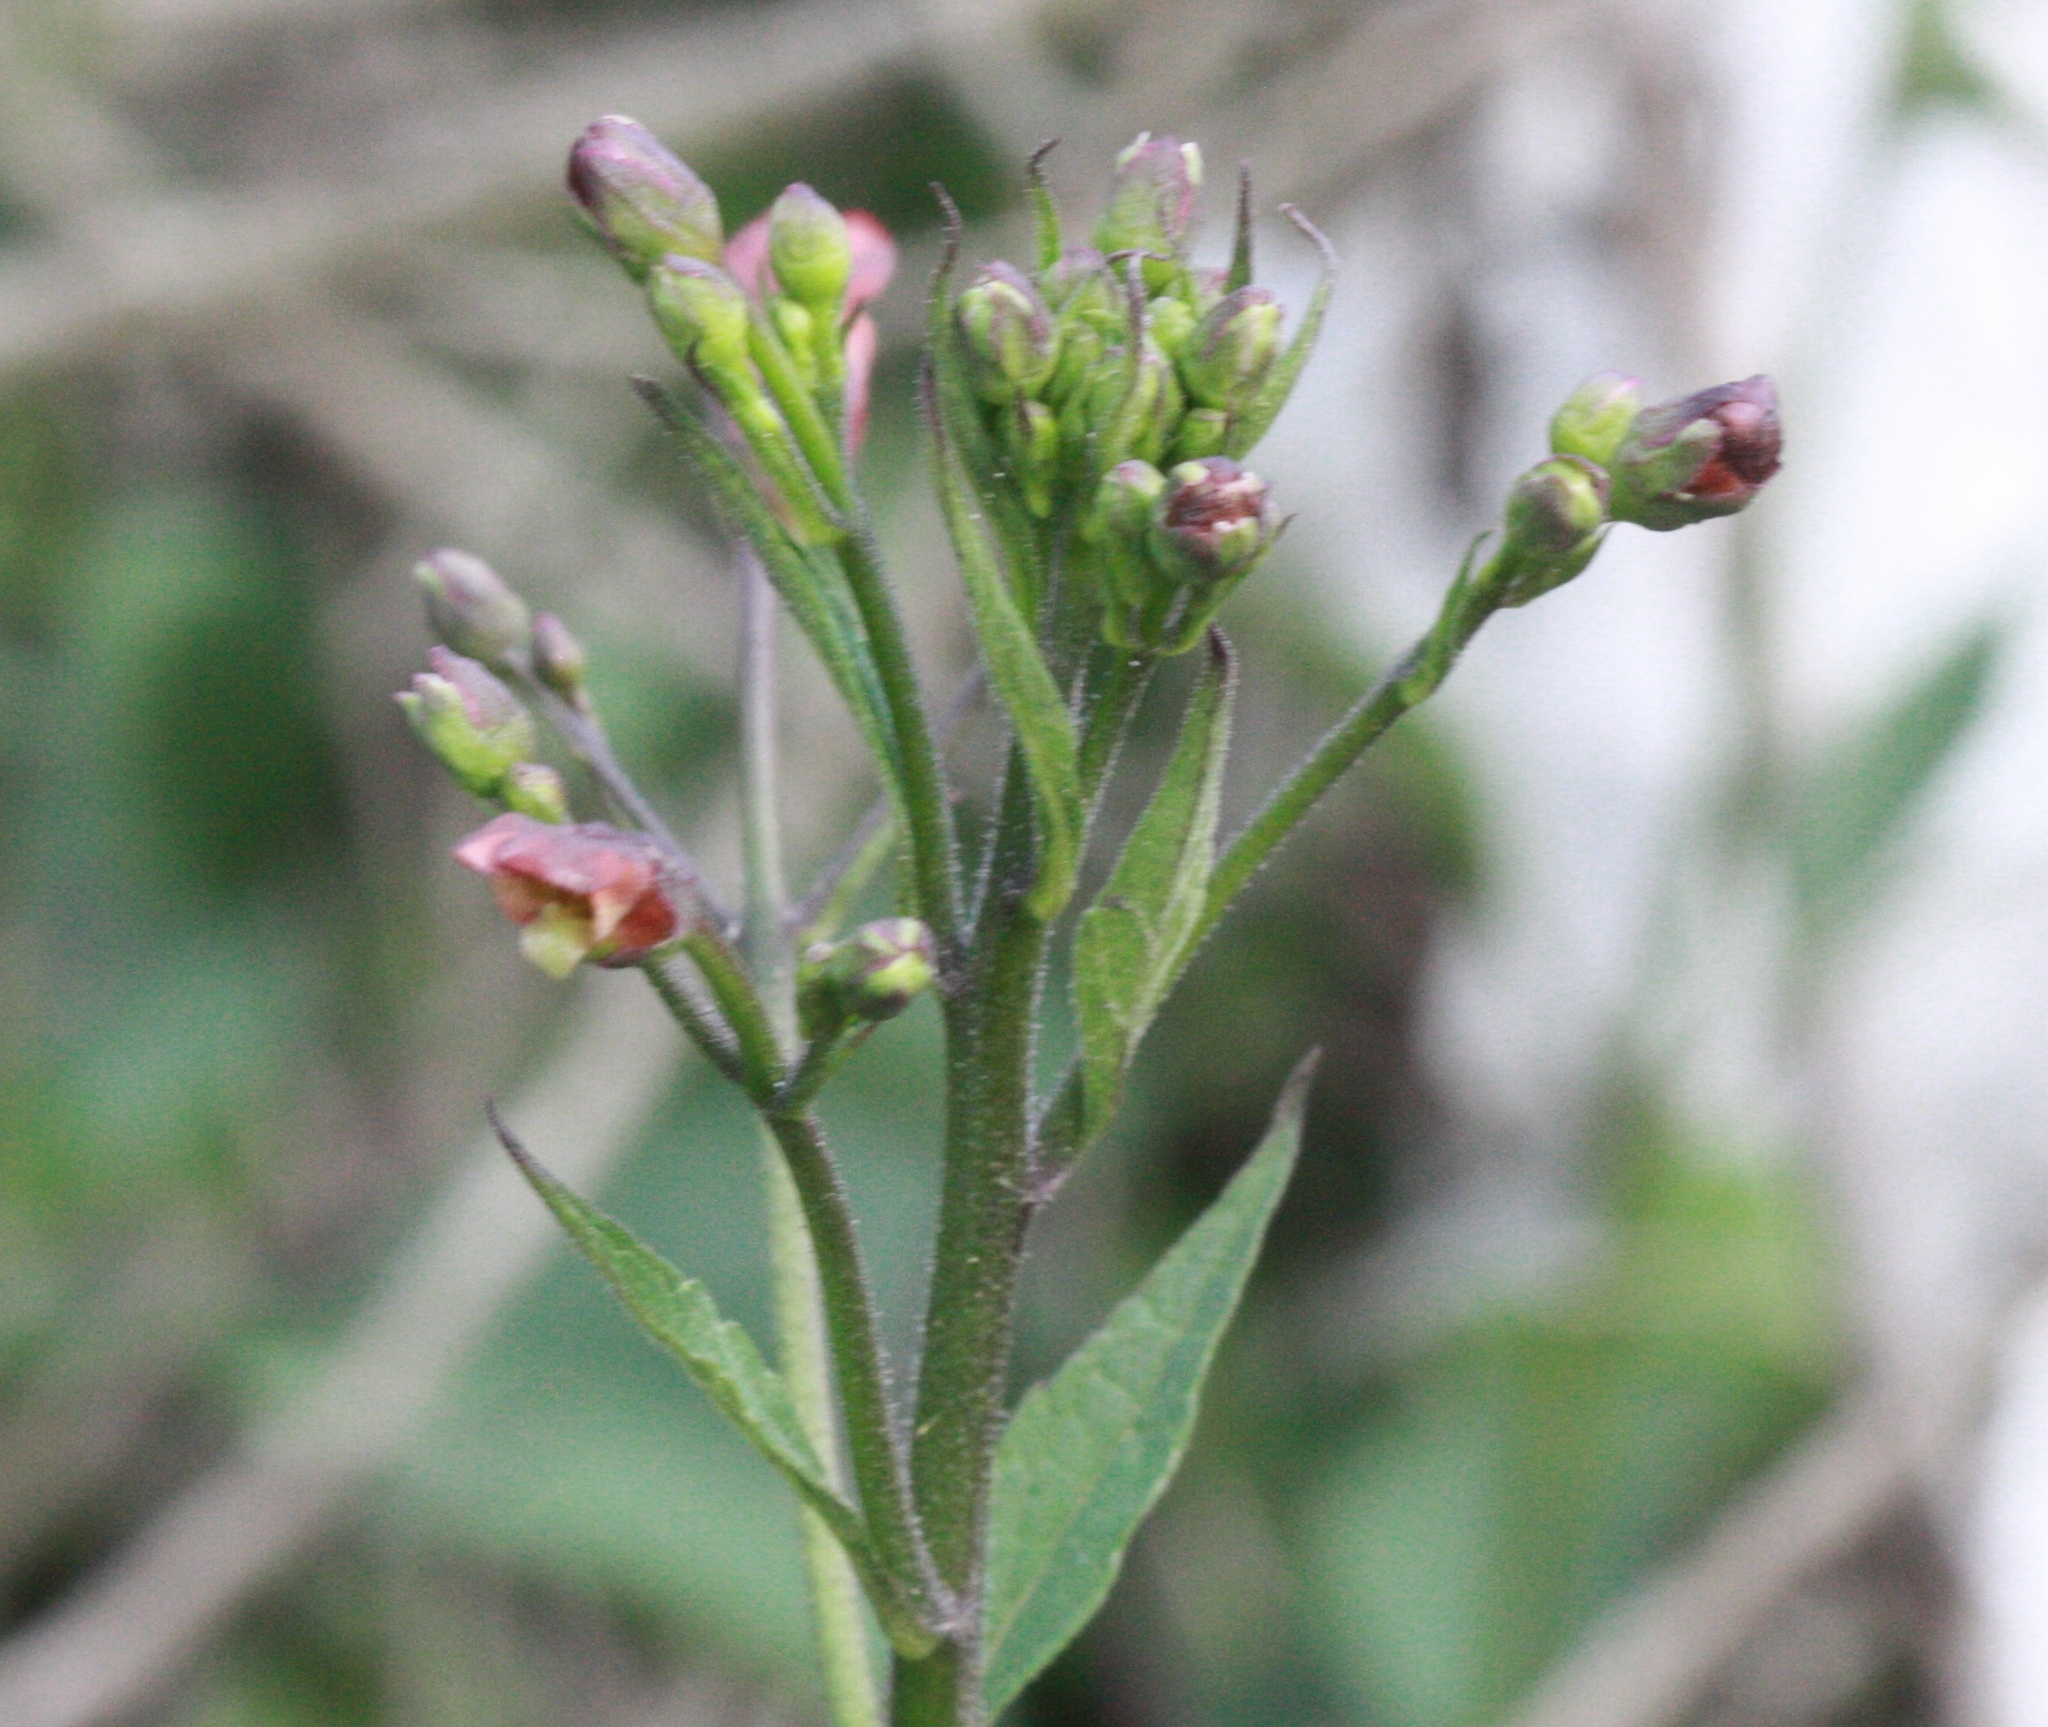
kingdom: Plantae
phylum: Tracheophyta
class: Magnoliopsida
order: Lamiales
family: Scrophulariaceae
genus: Scrophularia
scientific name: Scrophularia californica
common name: California figwort
